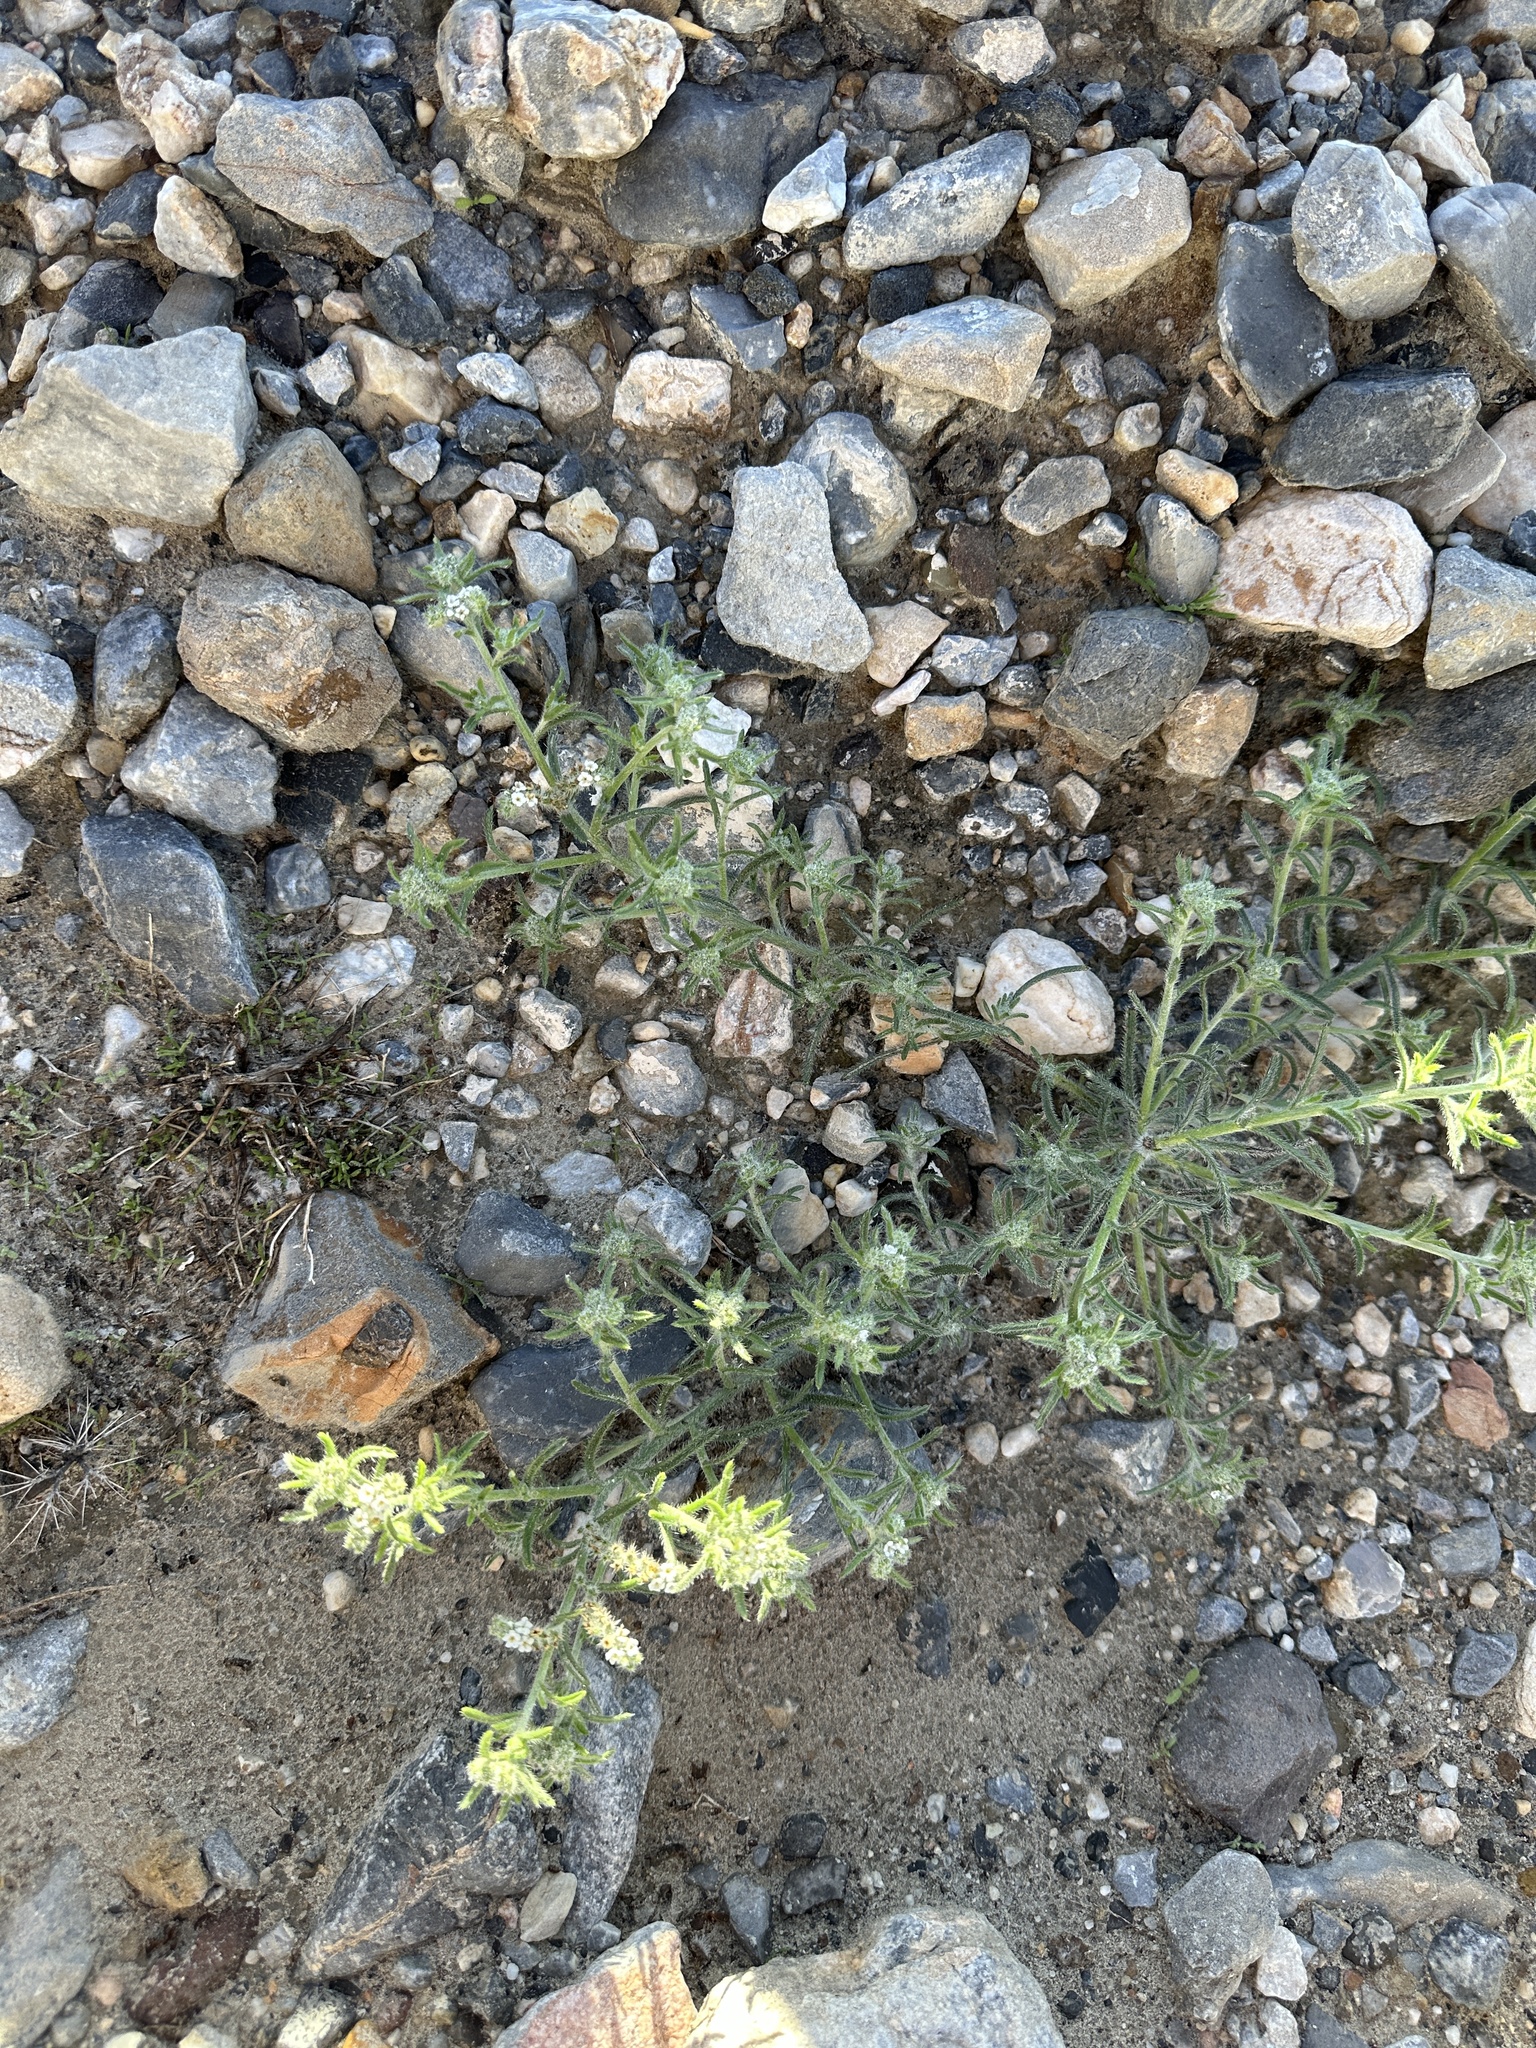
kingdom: Plantae
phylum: Tracheophyta
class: Magnoliopsida
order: Boraginales
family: Boraginaceae
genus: Johnstonella
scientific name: Johnstonella angustifolia
